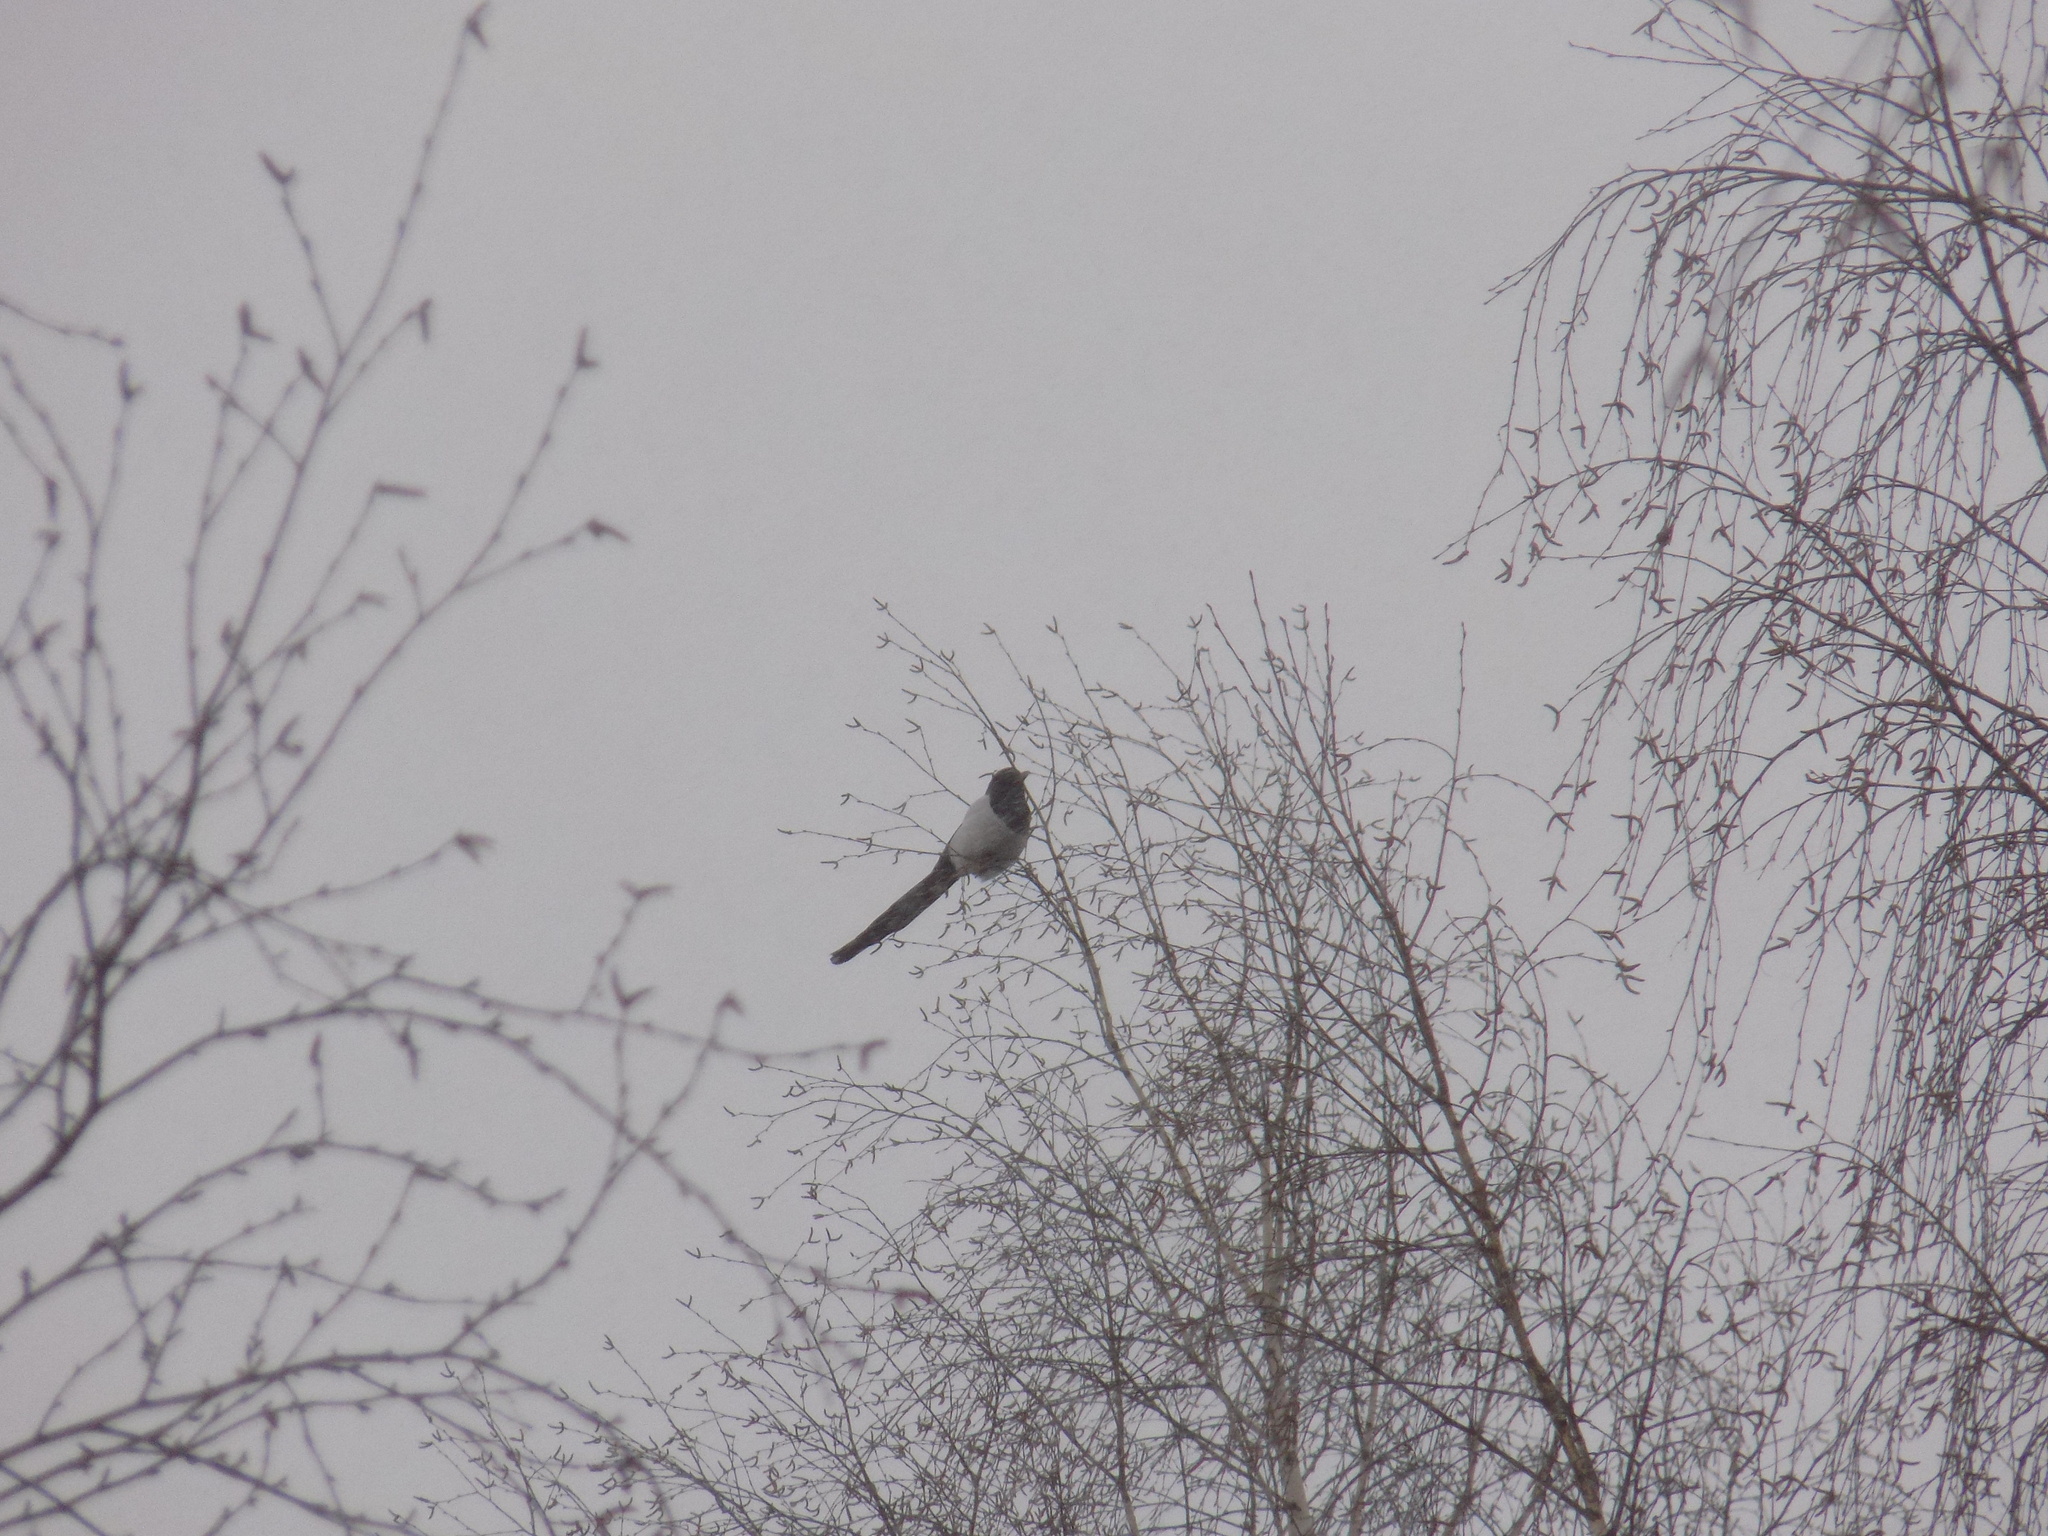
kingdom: Animalia
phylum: Chordata
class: Aves
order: Passeriformes
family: Corvidae
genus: Pica
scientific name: Pica pica
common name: Eurasian magpie
